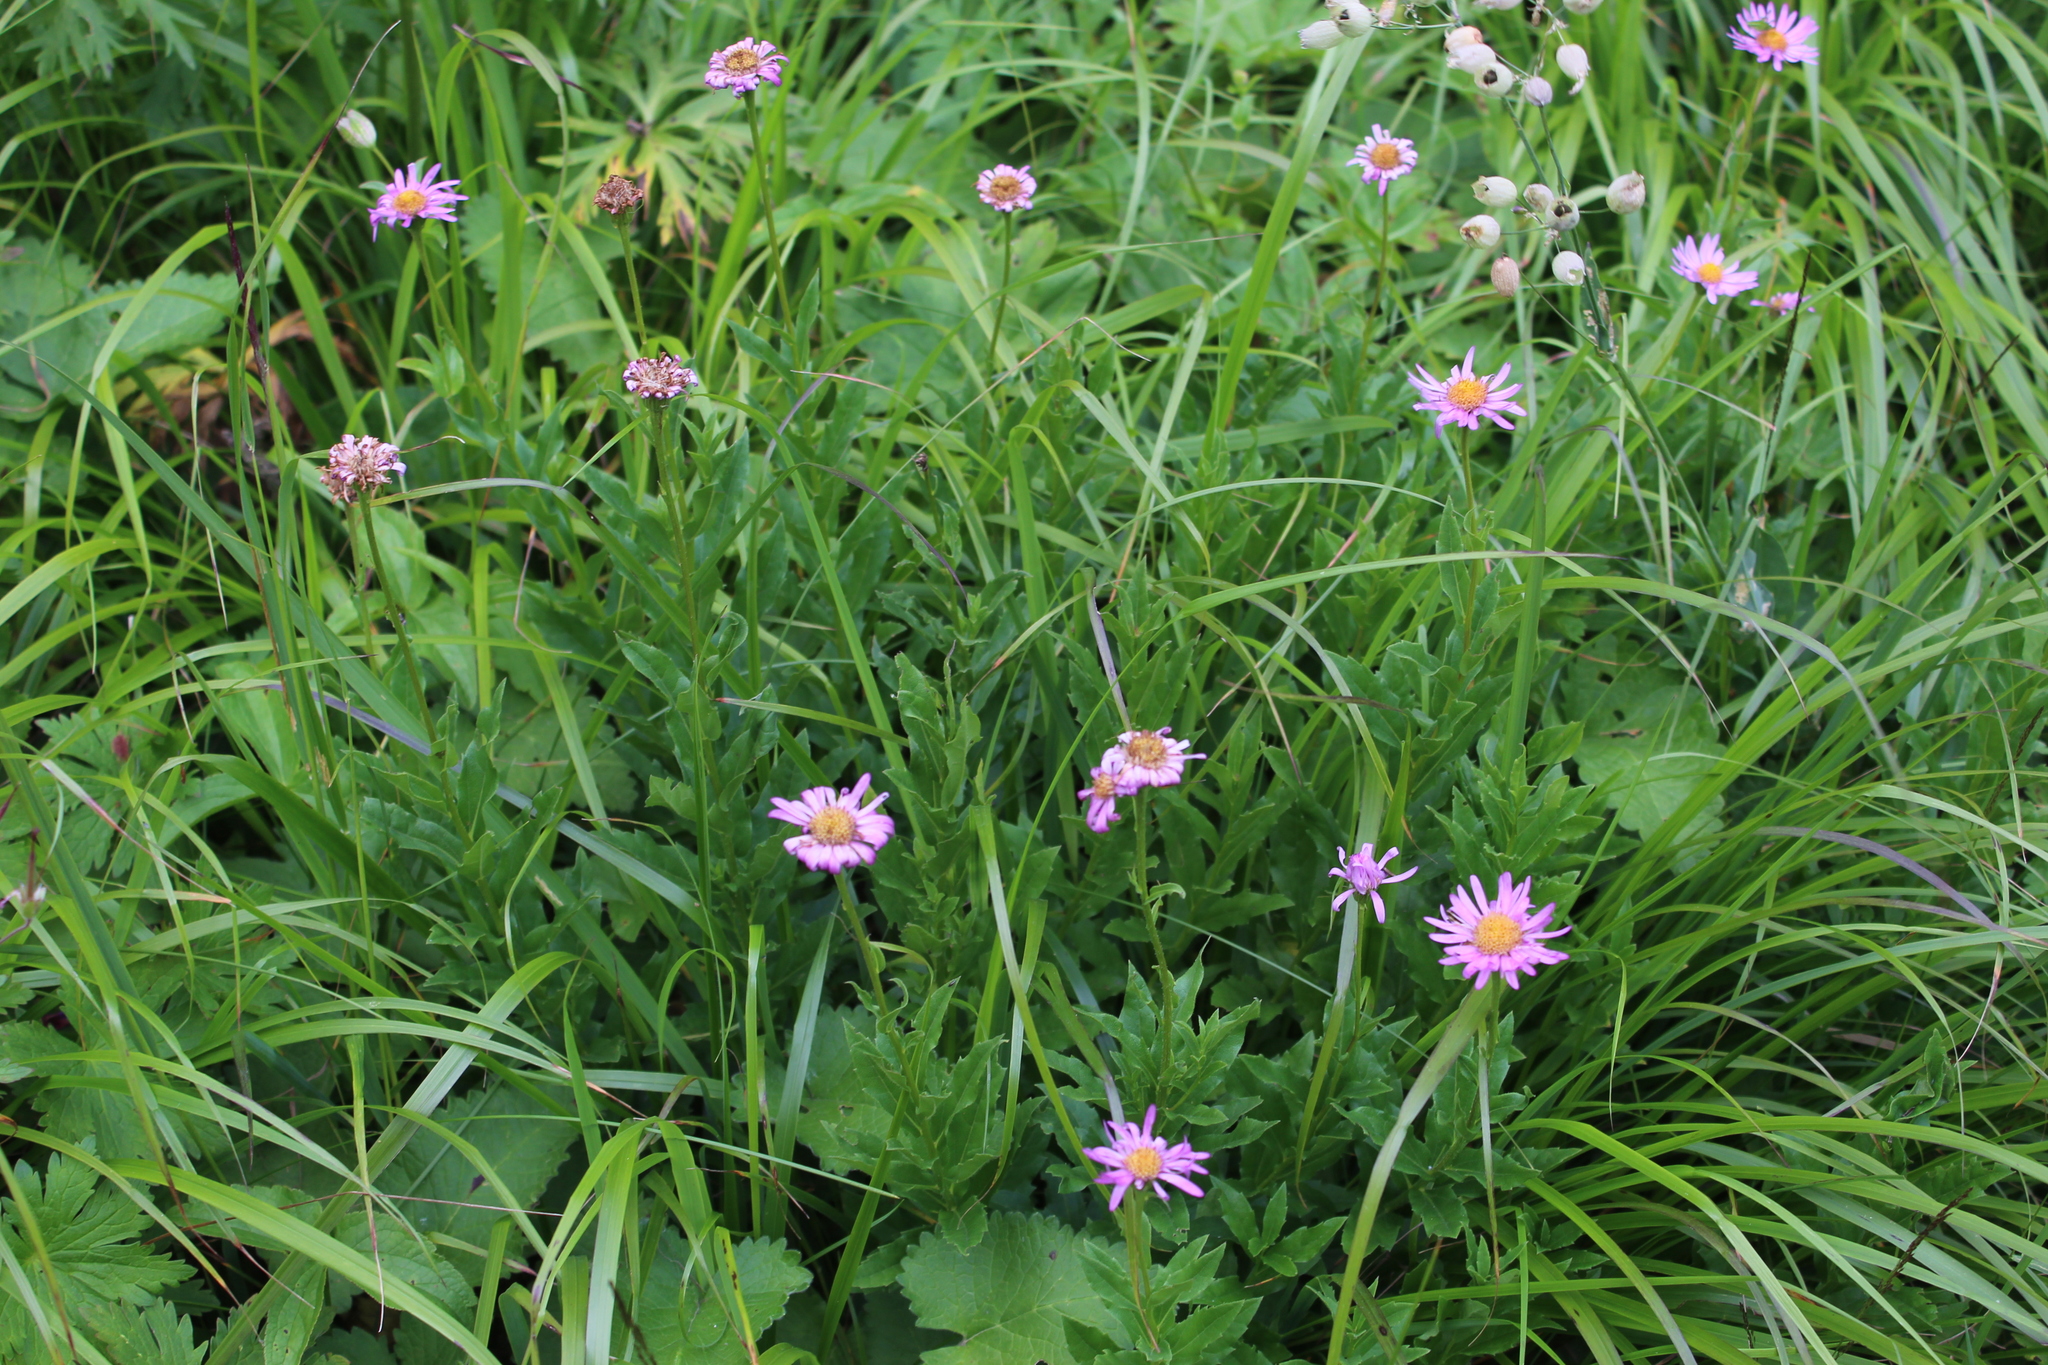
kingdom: Plantae
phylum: Tracheophyta
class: Magnoliopsida
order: Asterales
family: Asteraceae
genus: Kemulariella
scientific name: Kemulariella caucasica
